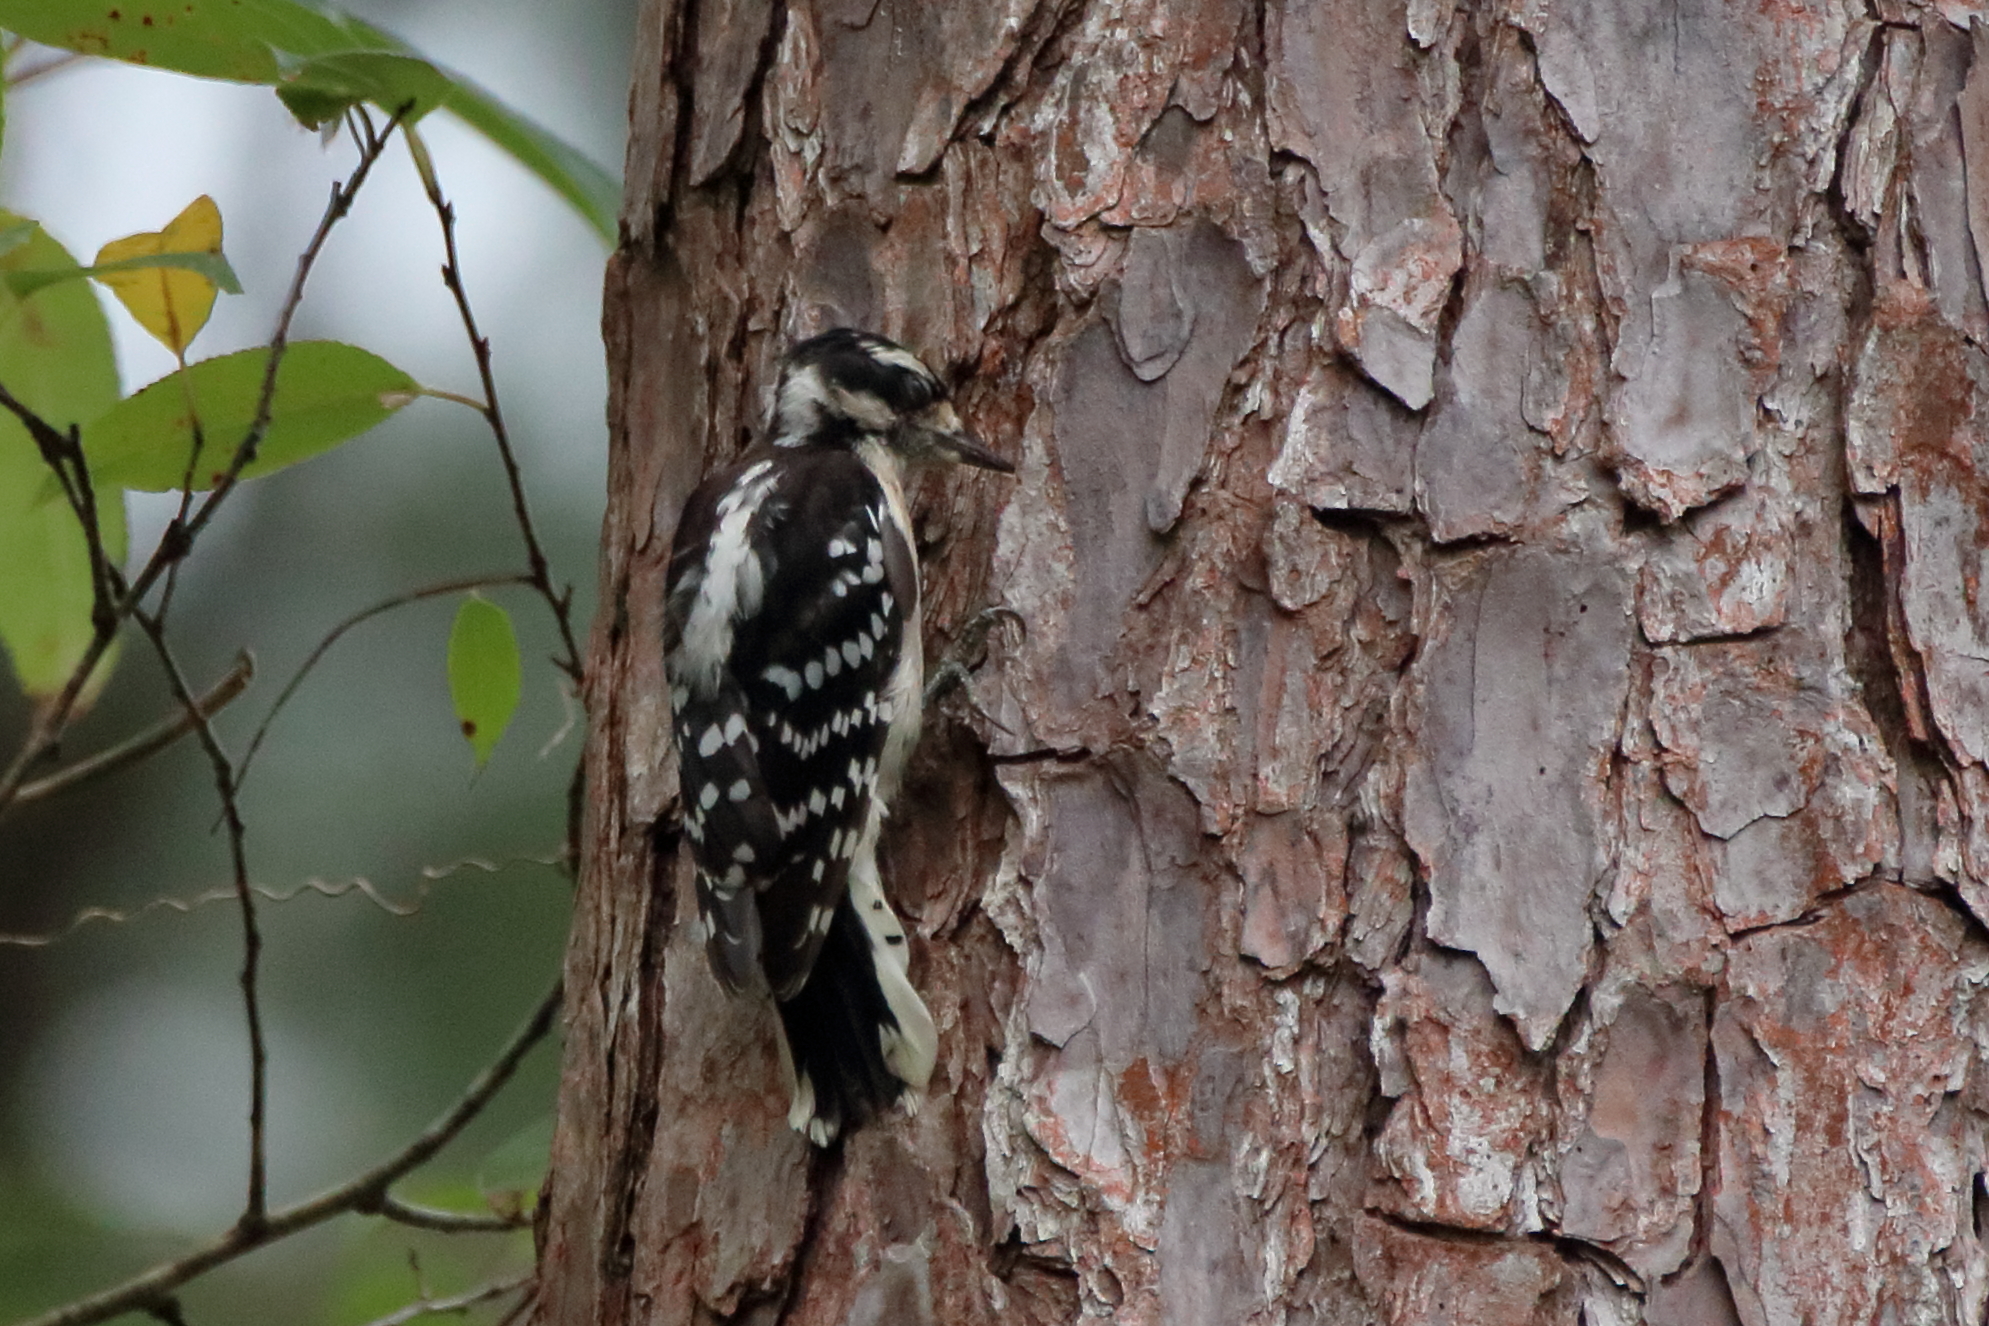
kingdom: Animalia
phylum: Chordata
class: Aves
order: Piciformes
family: Picidae
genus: Dryobates
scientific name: Dryobates pubescens
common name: Downy woodpecker
